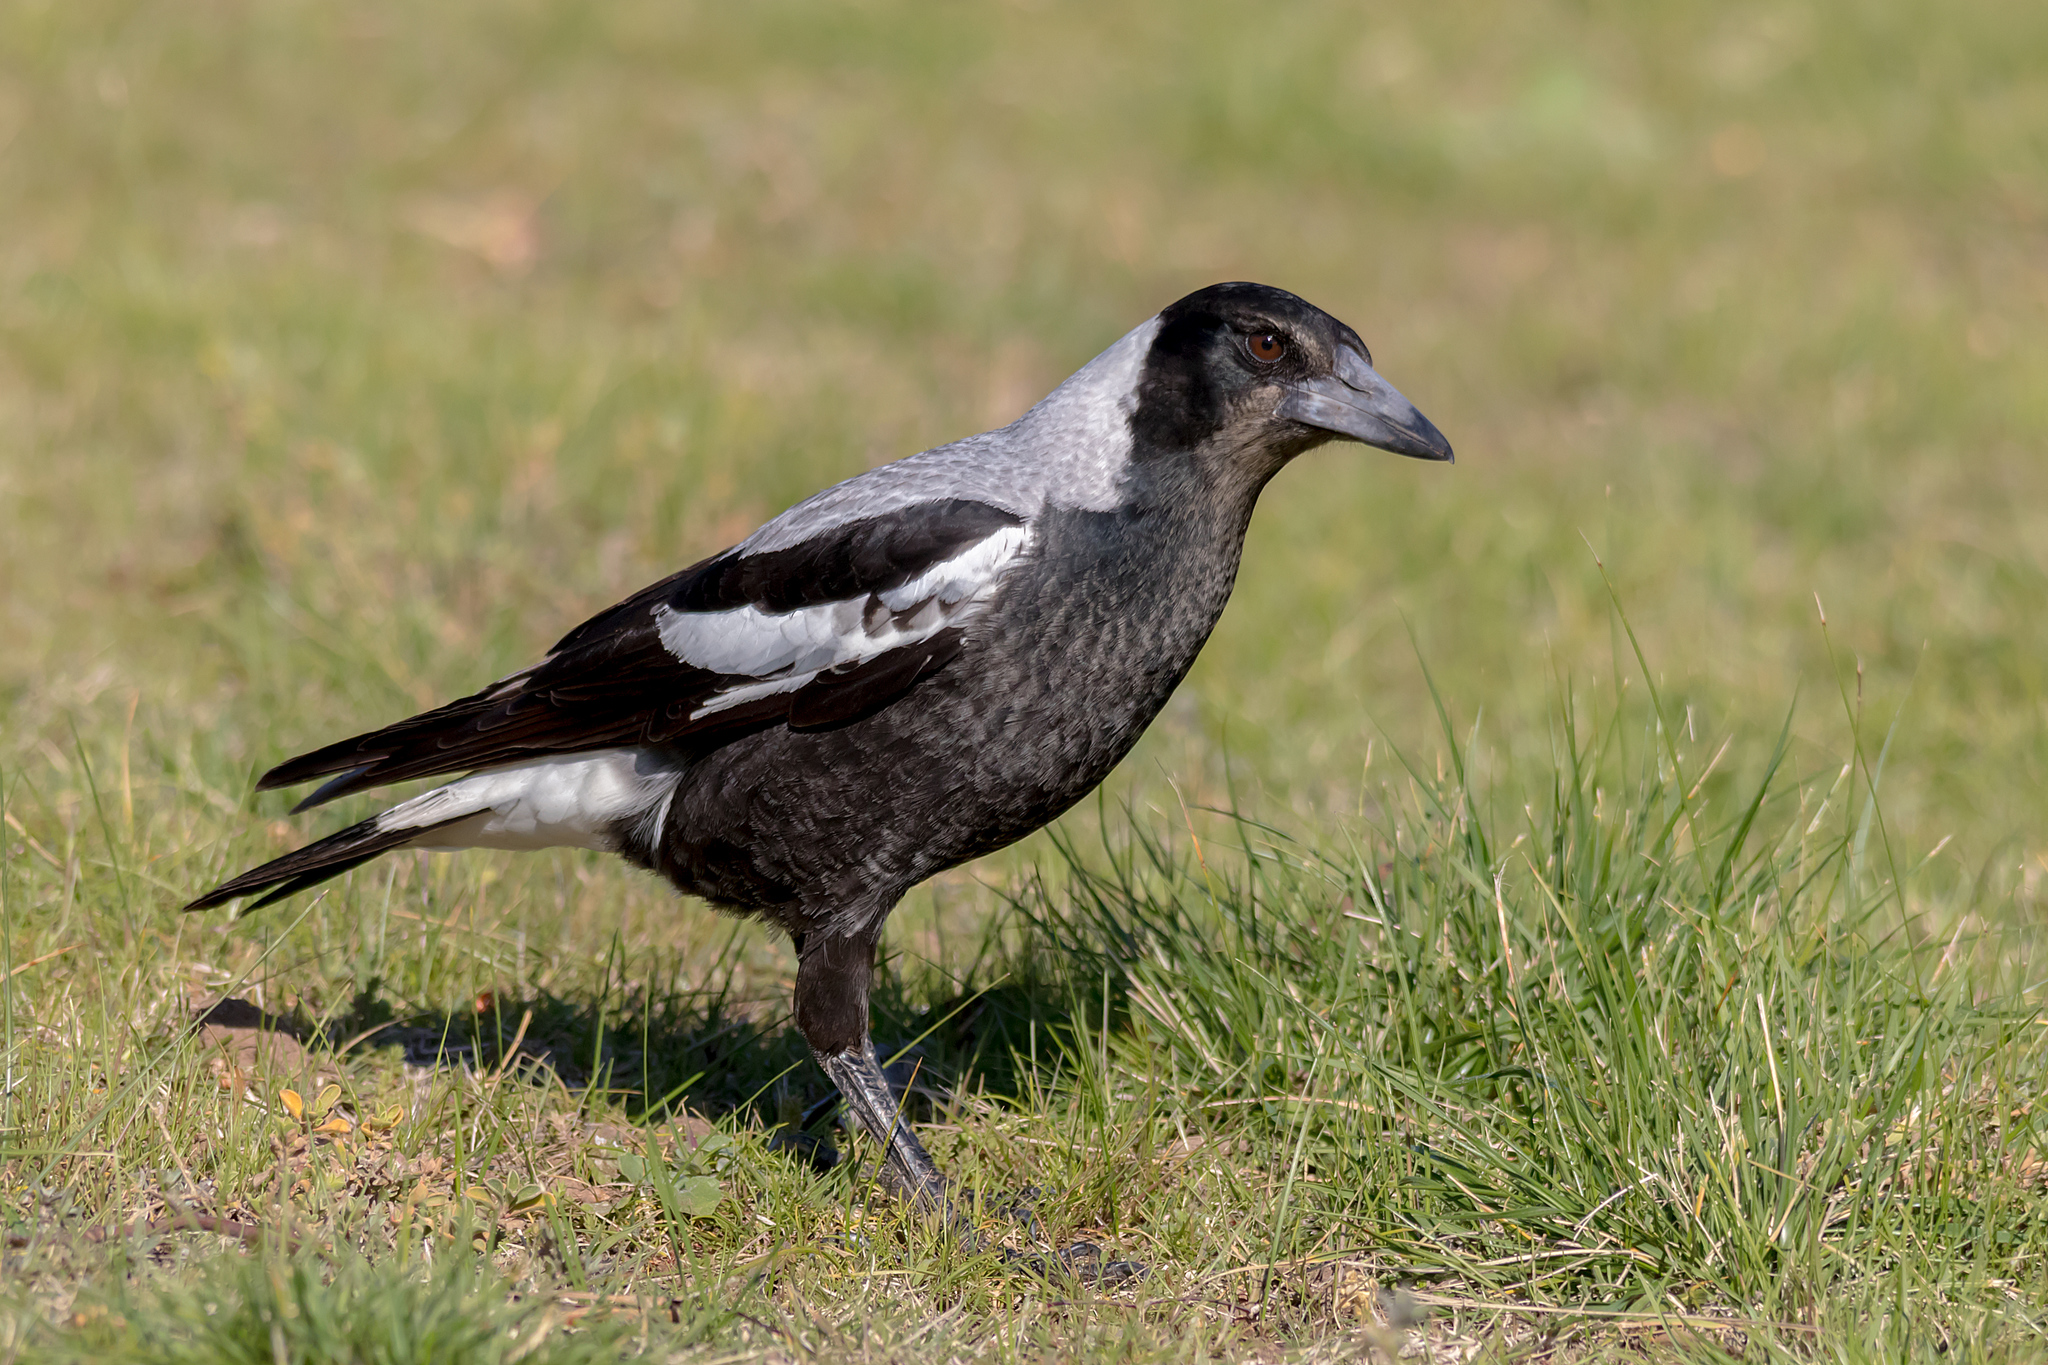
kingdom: Animalia
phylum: Chordata
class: Aves
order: Passeriformes
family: Cracticidae
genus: Gymnorhina
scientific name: Gymnorhina tibicen
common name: Australian magpie
